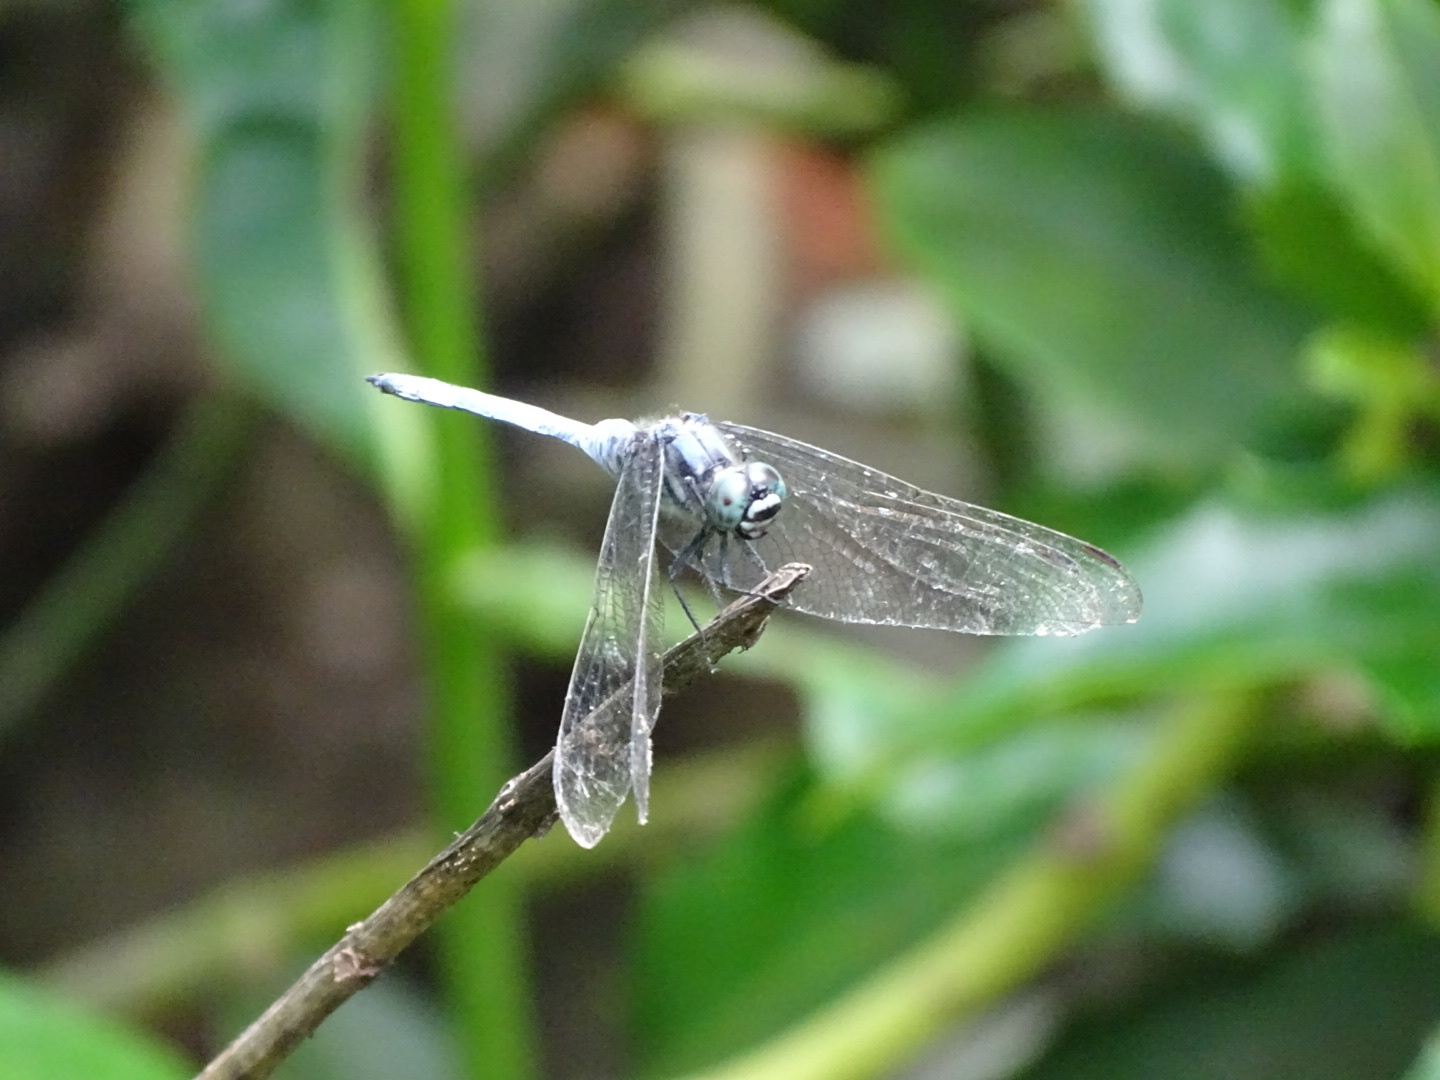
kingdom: Animalia
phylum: Arthropoda
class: Insecta
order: Odonata
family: Libellulidae
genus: Orthetrum
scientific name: Orthetrum poecilops
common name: Mangrove skimmer
